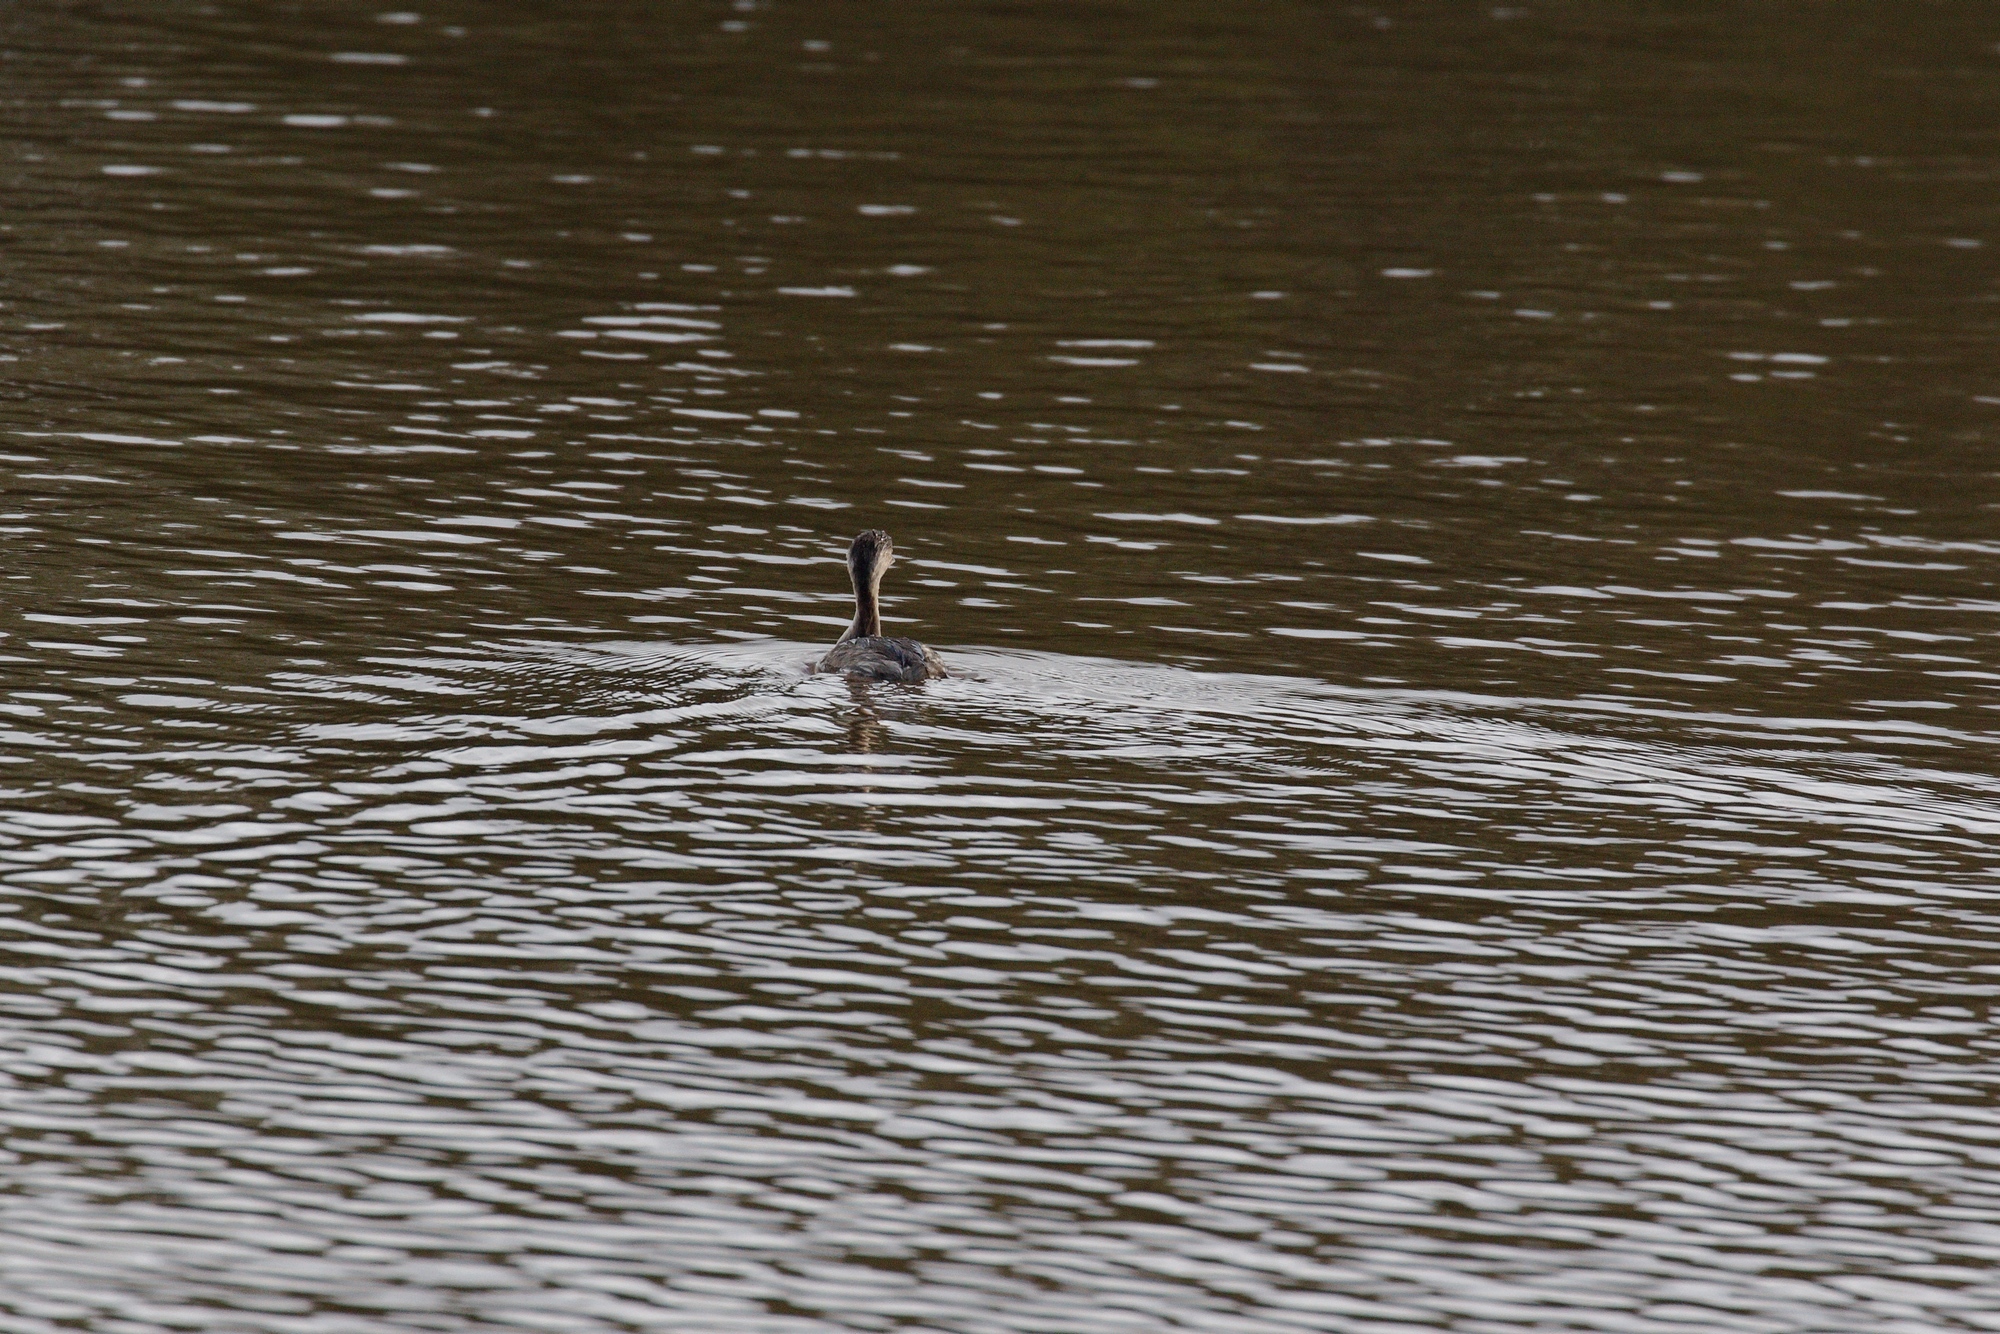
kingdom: Animalia
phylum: Chordata
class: Aves
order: Podicipediformes
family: Podicipedidae
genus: Poliocephalus
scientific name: Poliocephalus poliocephalus
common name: Hoary-headed grebe
